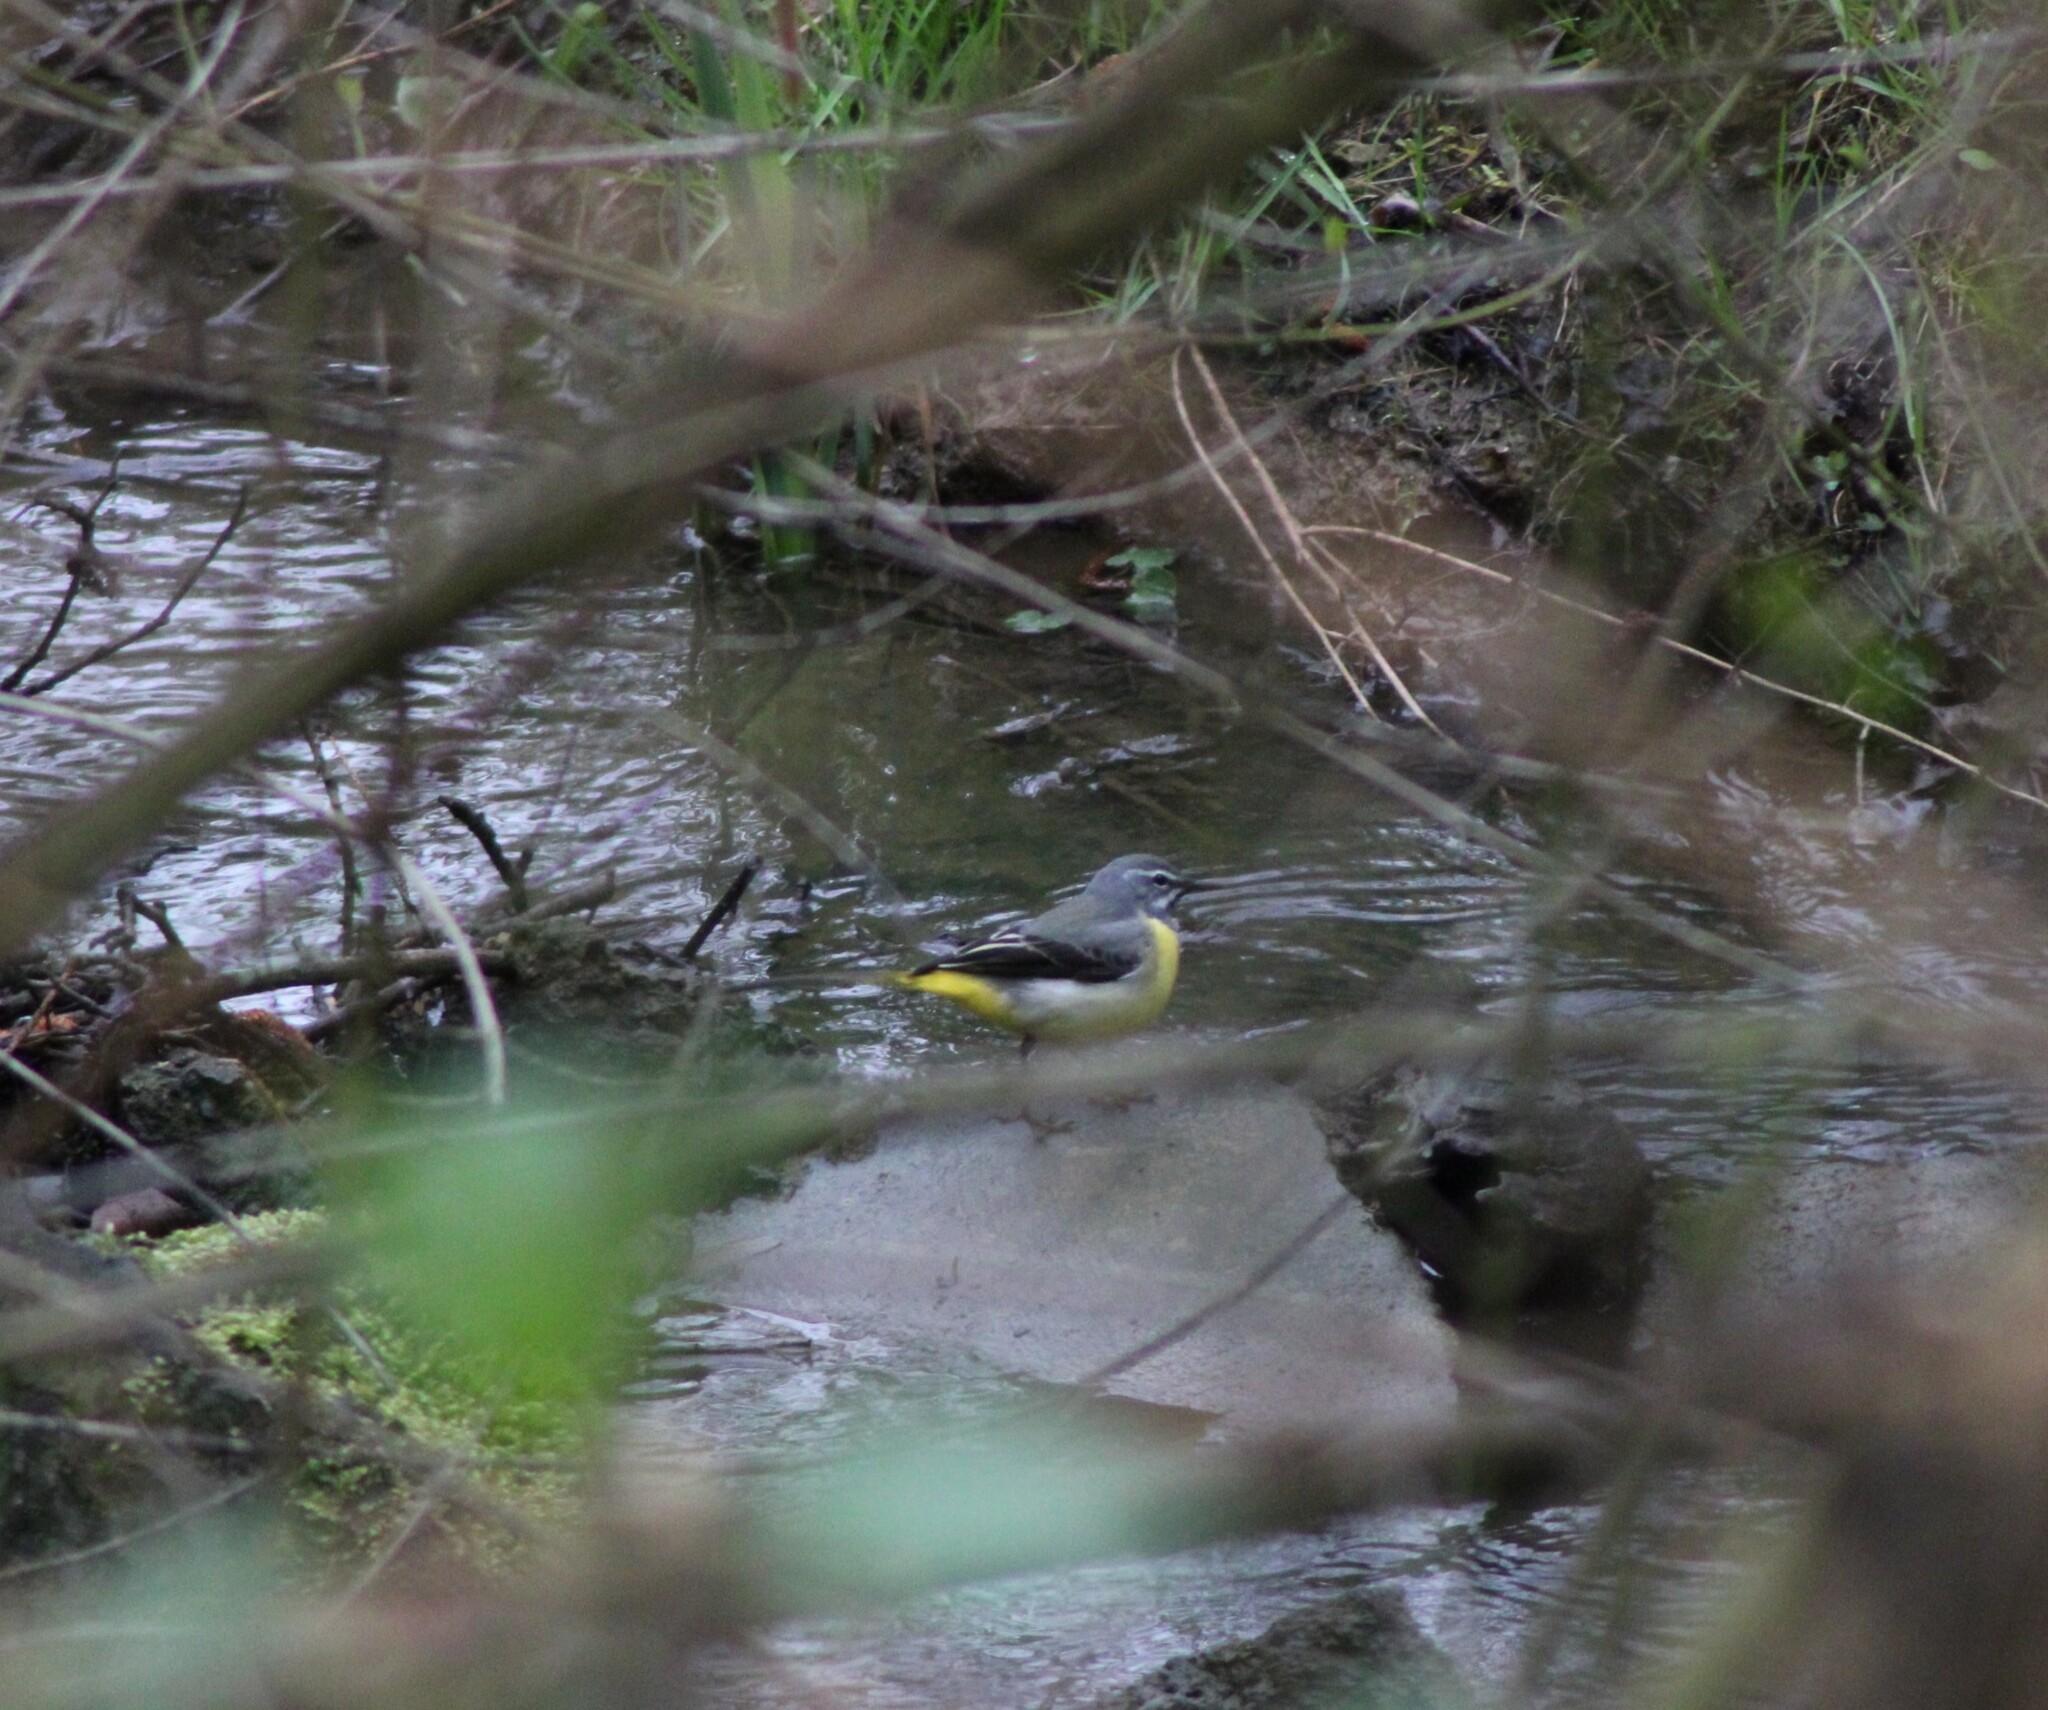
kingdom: Animalia
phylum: Chordata
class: Aves
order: Passeriformes
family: Motacillidae
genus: Motacilla
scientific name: Motacilla cinerea
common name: Grey wagtail
